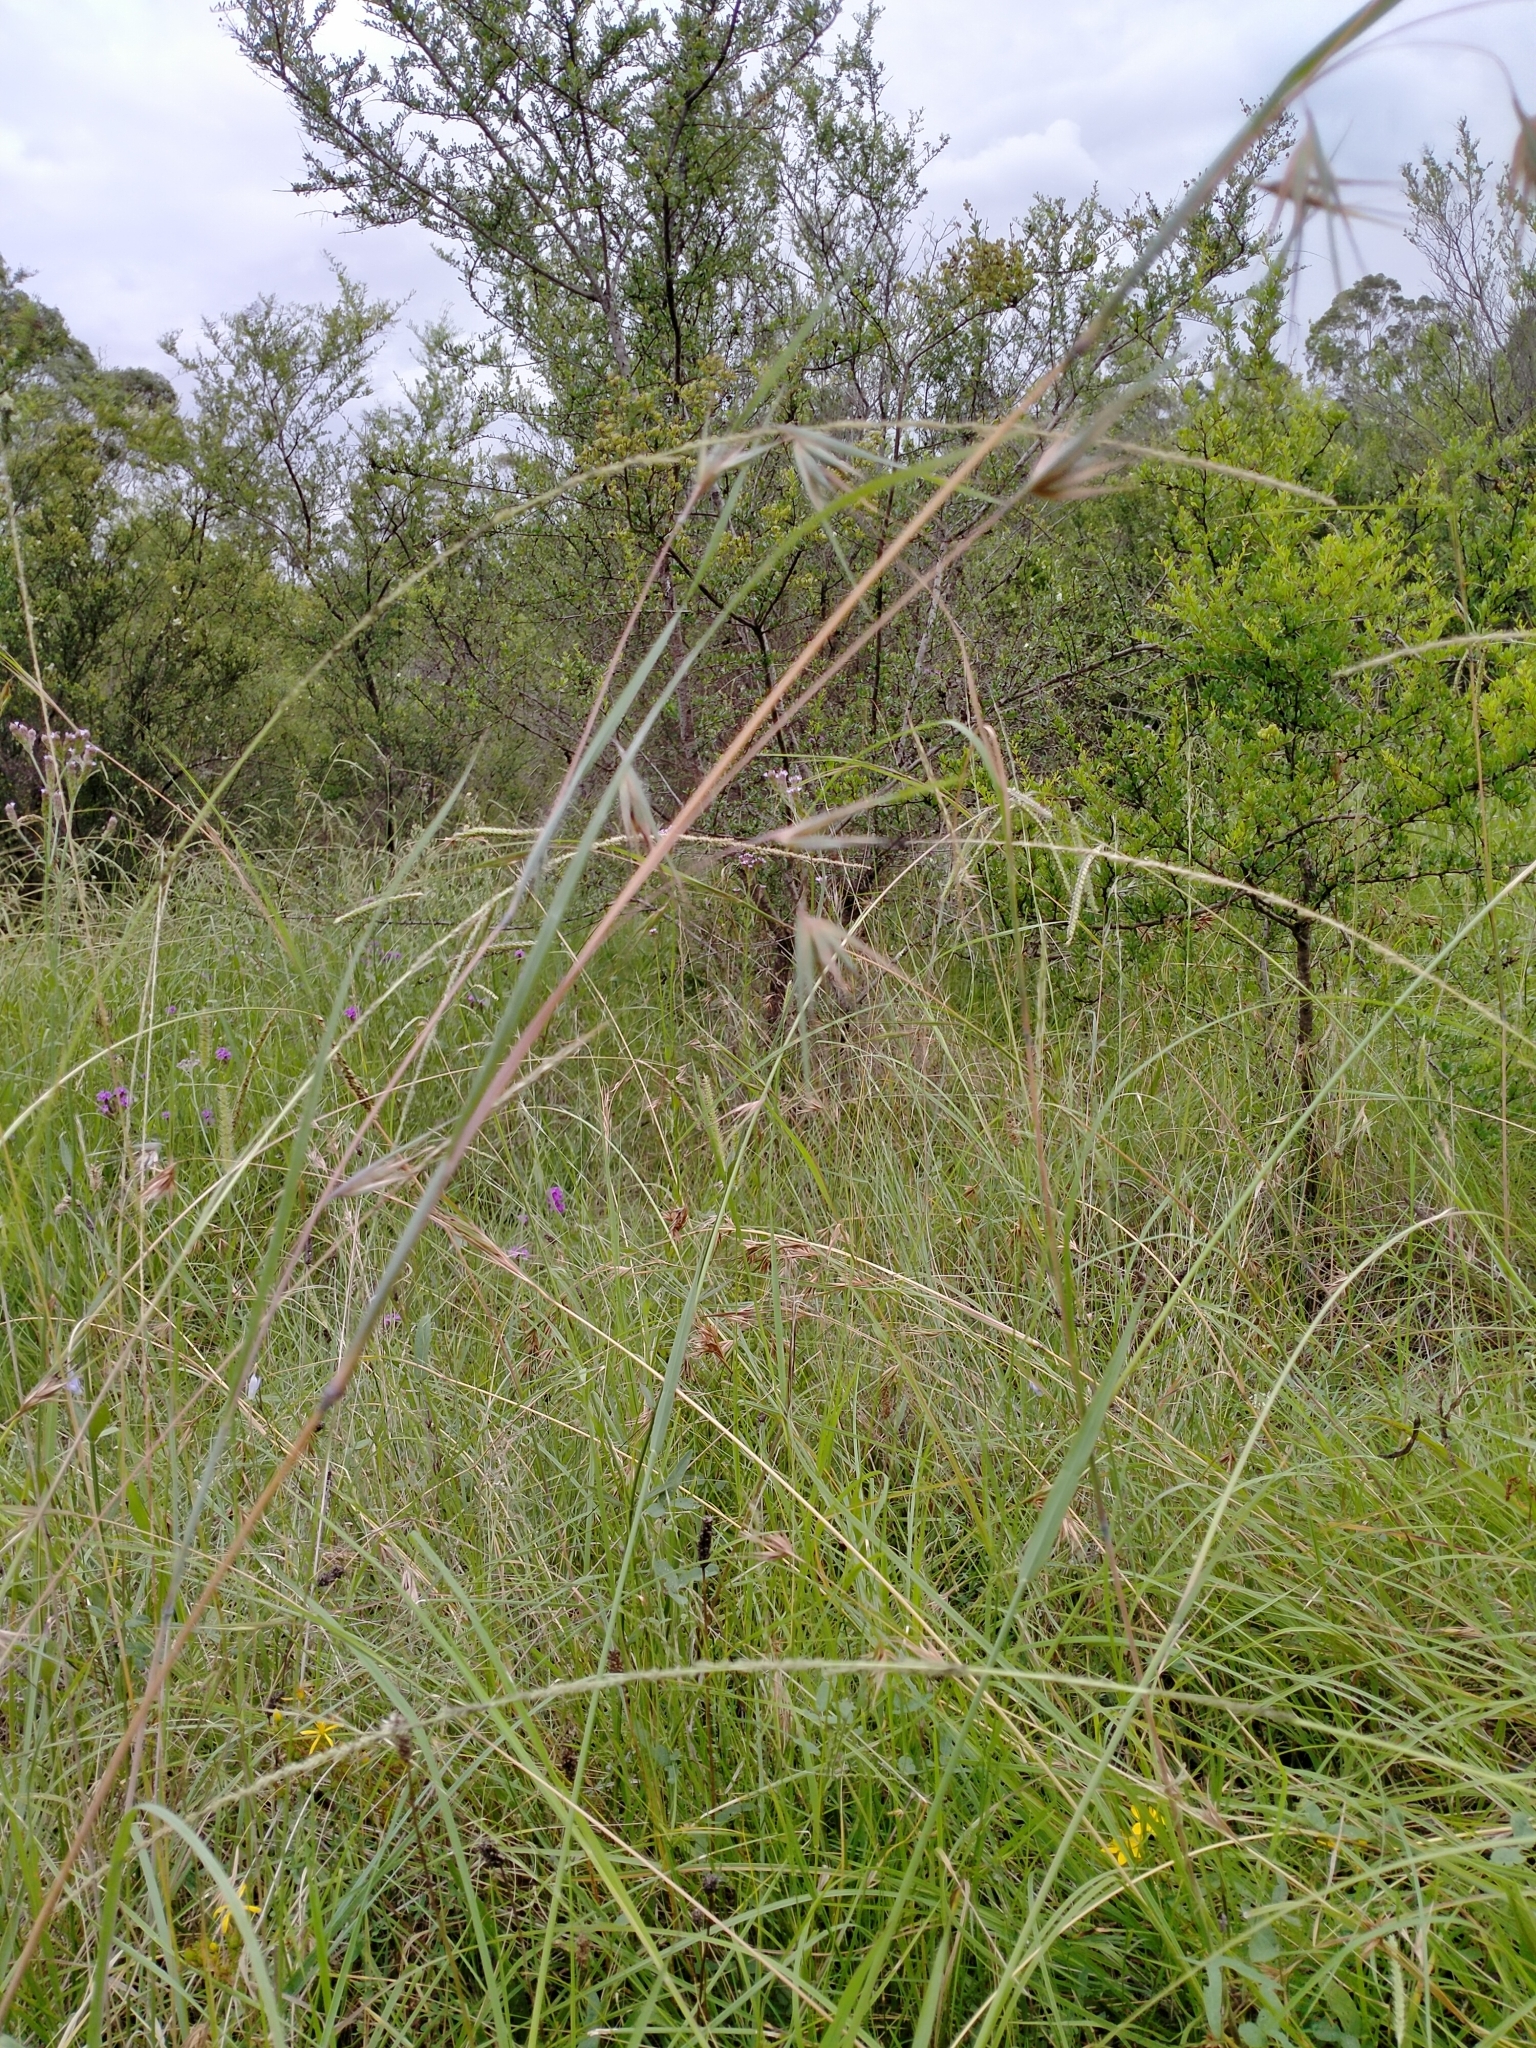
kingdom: Plantae
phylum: Tracheophyta
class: Liliopsida
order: Poales
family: Poaceae
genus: Themeda
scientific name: Themeda triandra
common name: Kangaroo grass
